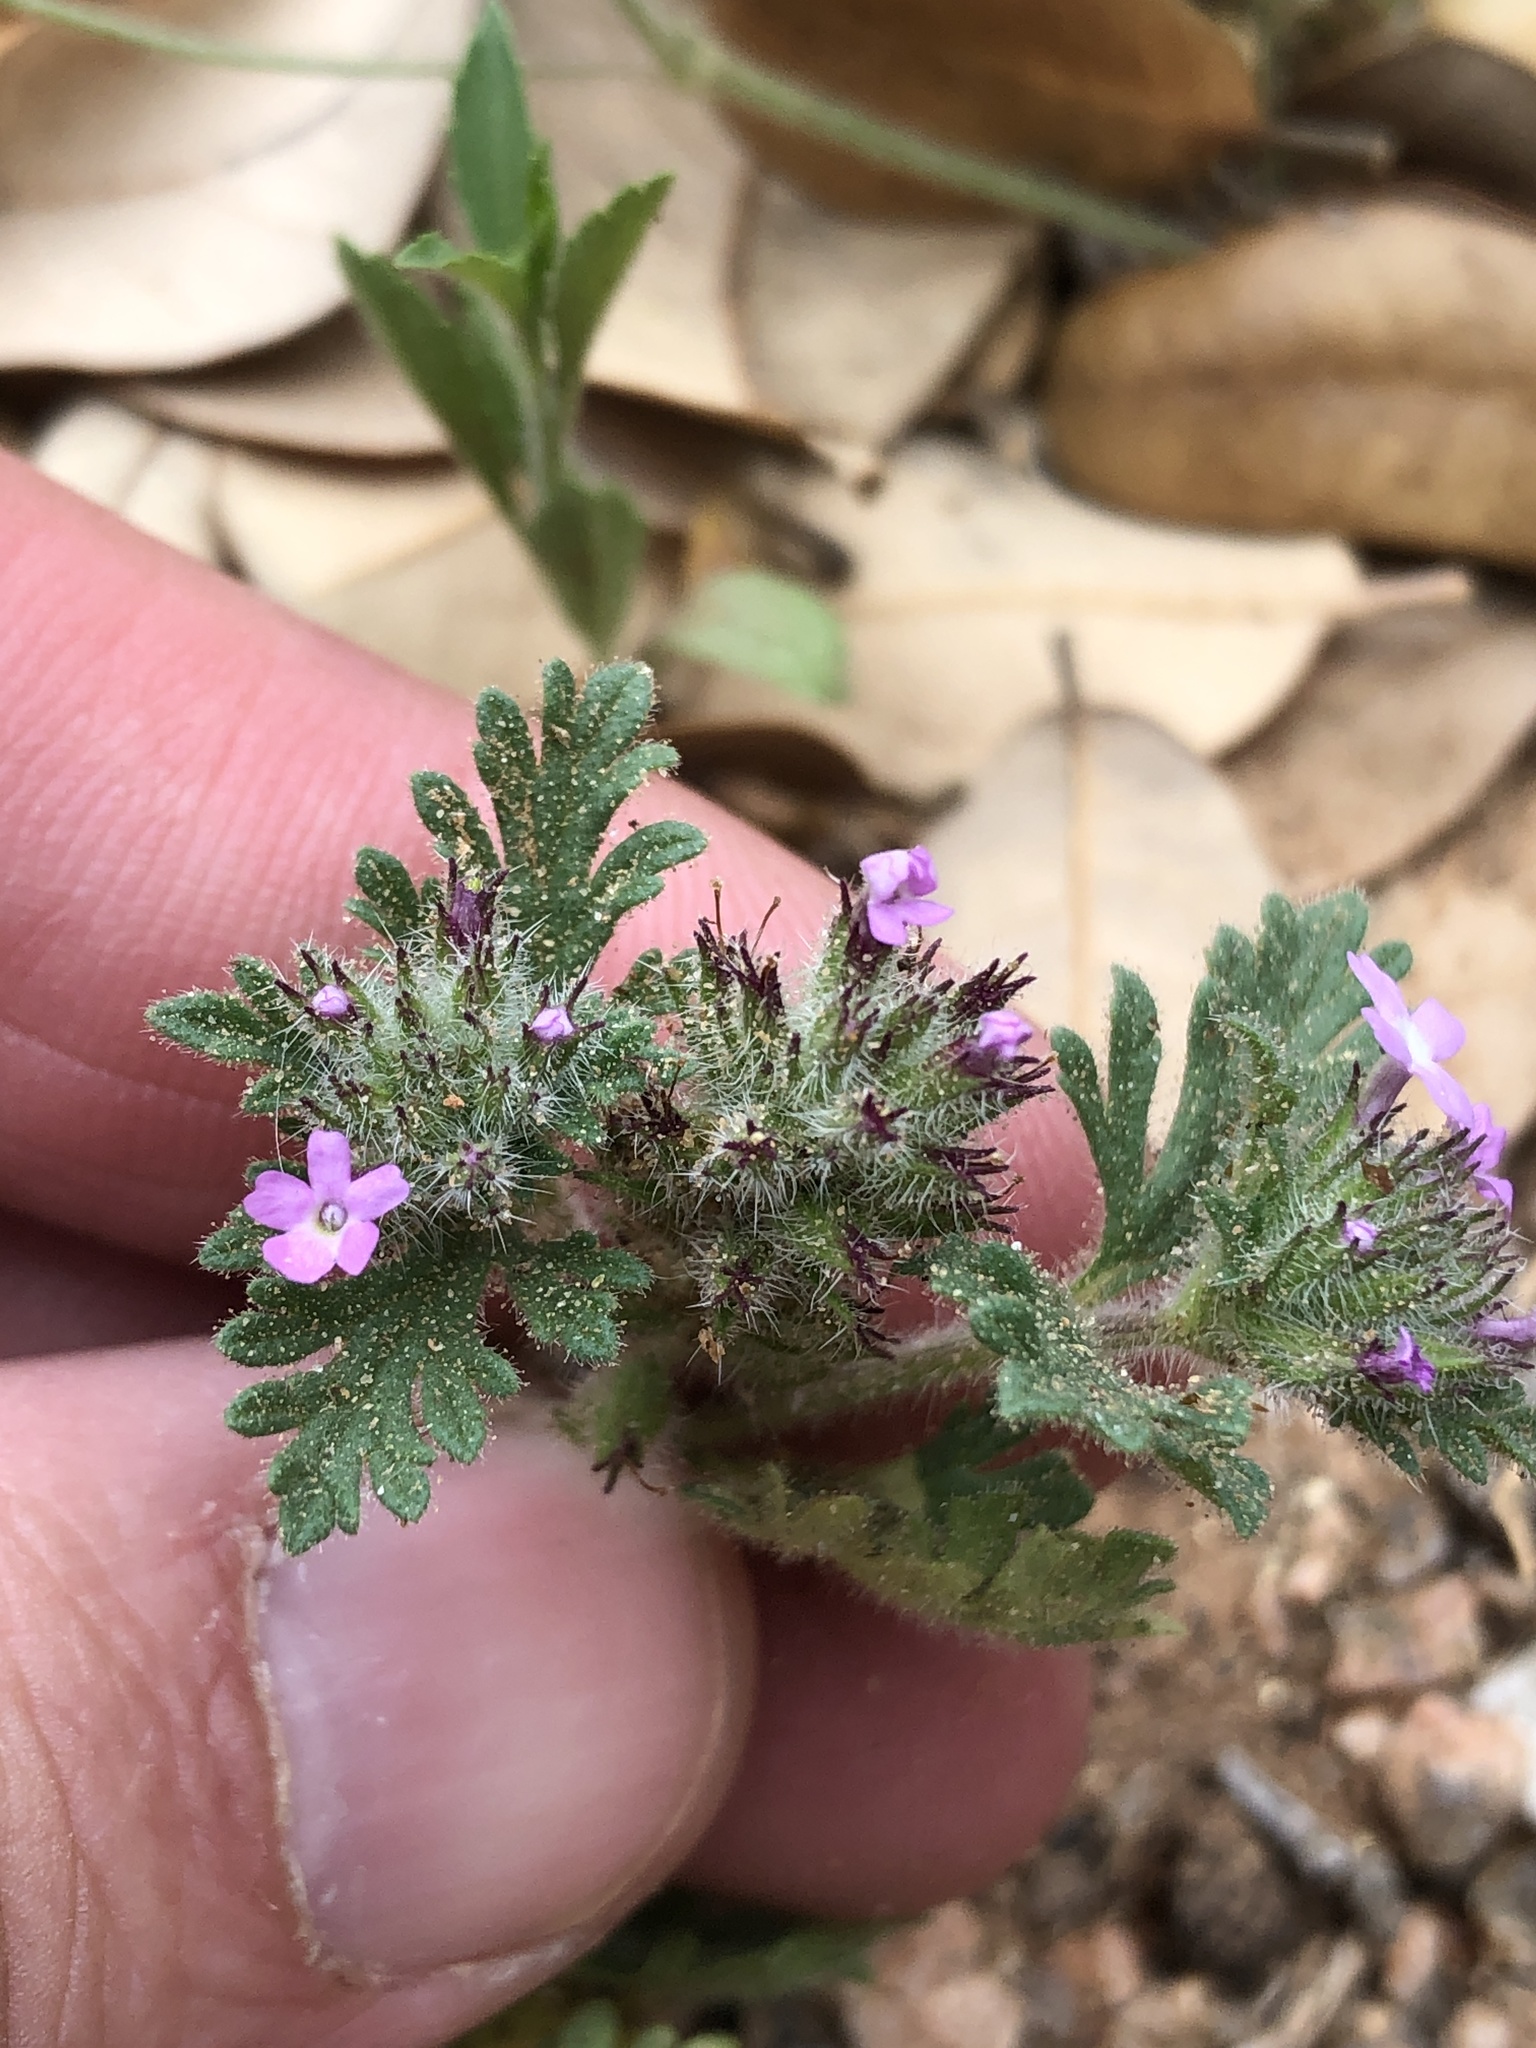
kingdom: Plantae
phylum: Tracheophyta
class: Magnoliopsida
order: Lamiales
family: Verbenaceae
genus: Verbena
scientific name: Verbena pumila
